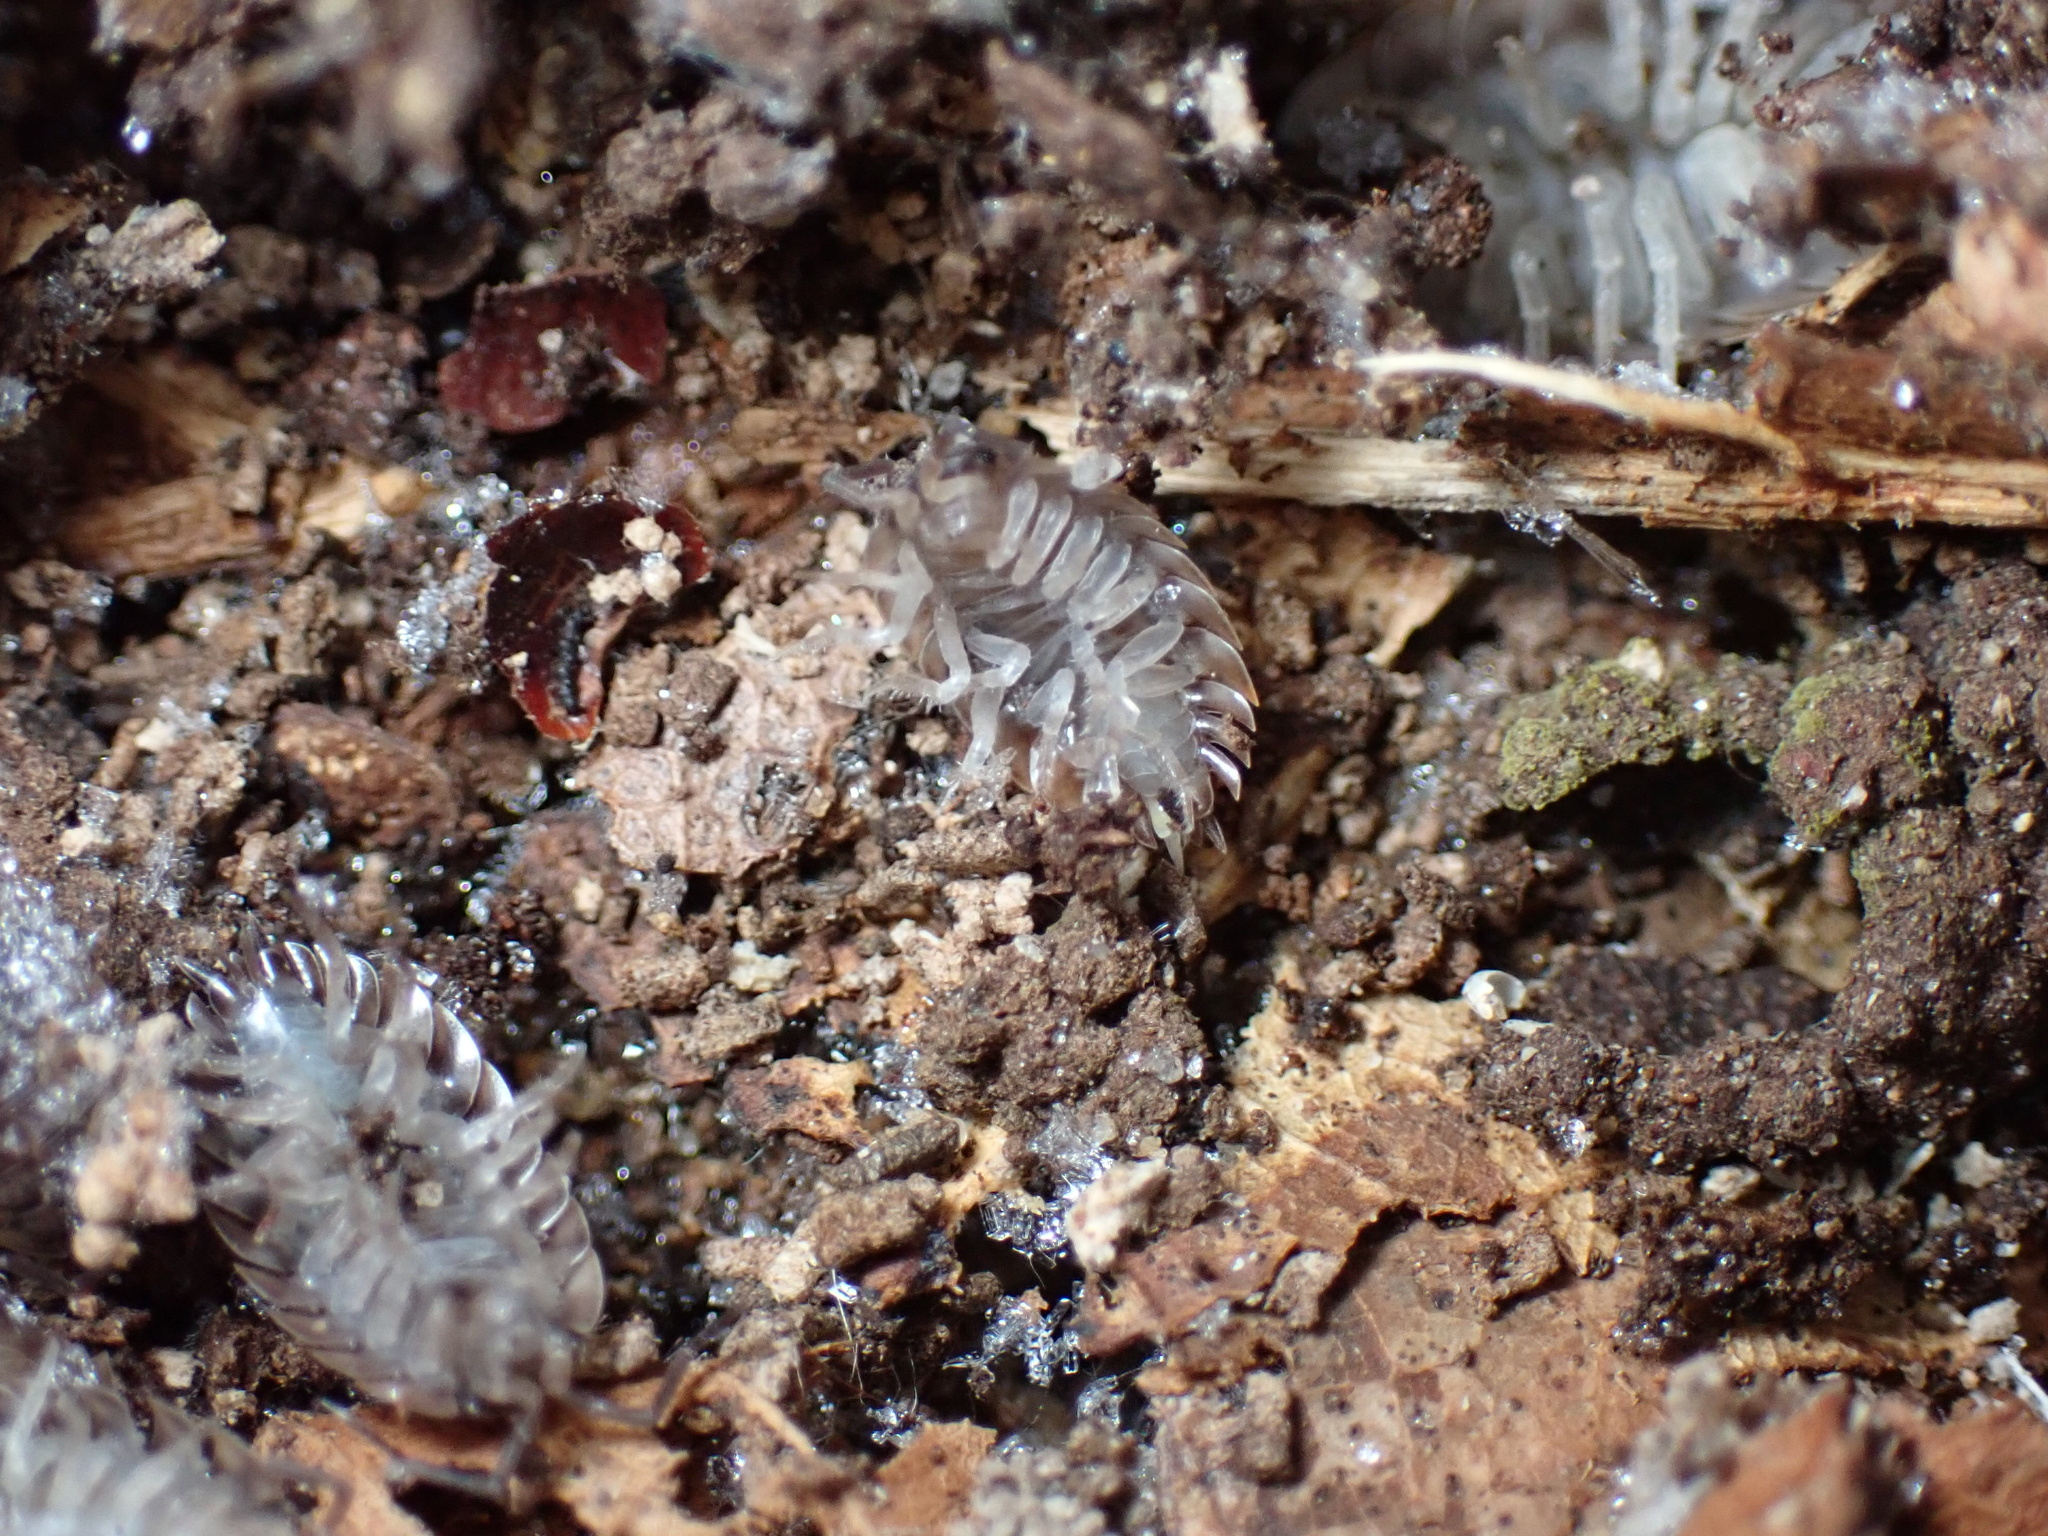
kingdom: Animalia
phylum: Arthropoda
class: Malacostraca
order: Isopoda
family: Oniscidae
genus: Oniscus
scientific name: Oniscus asellus
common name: Common shiny woodlouse
